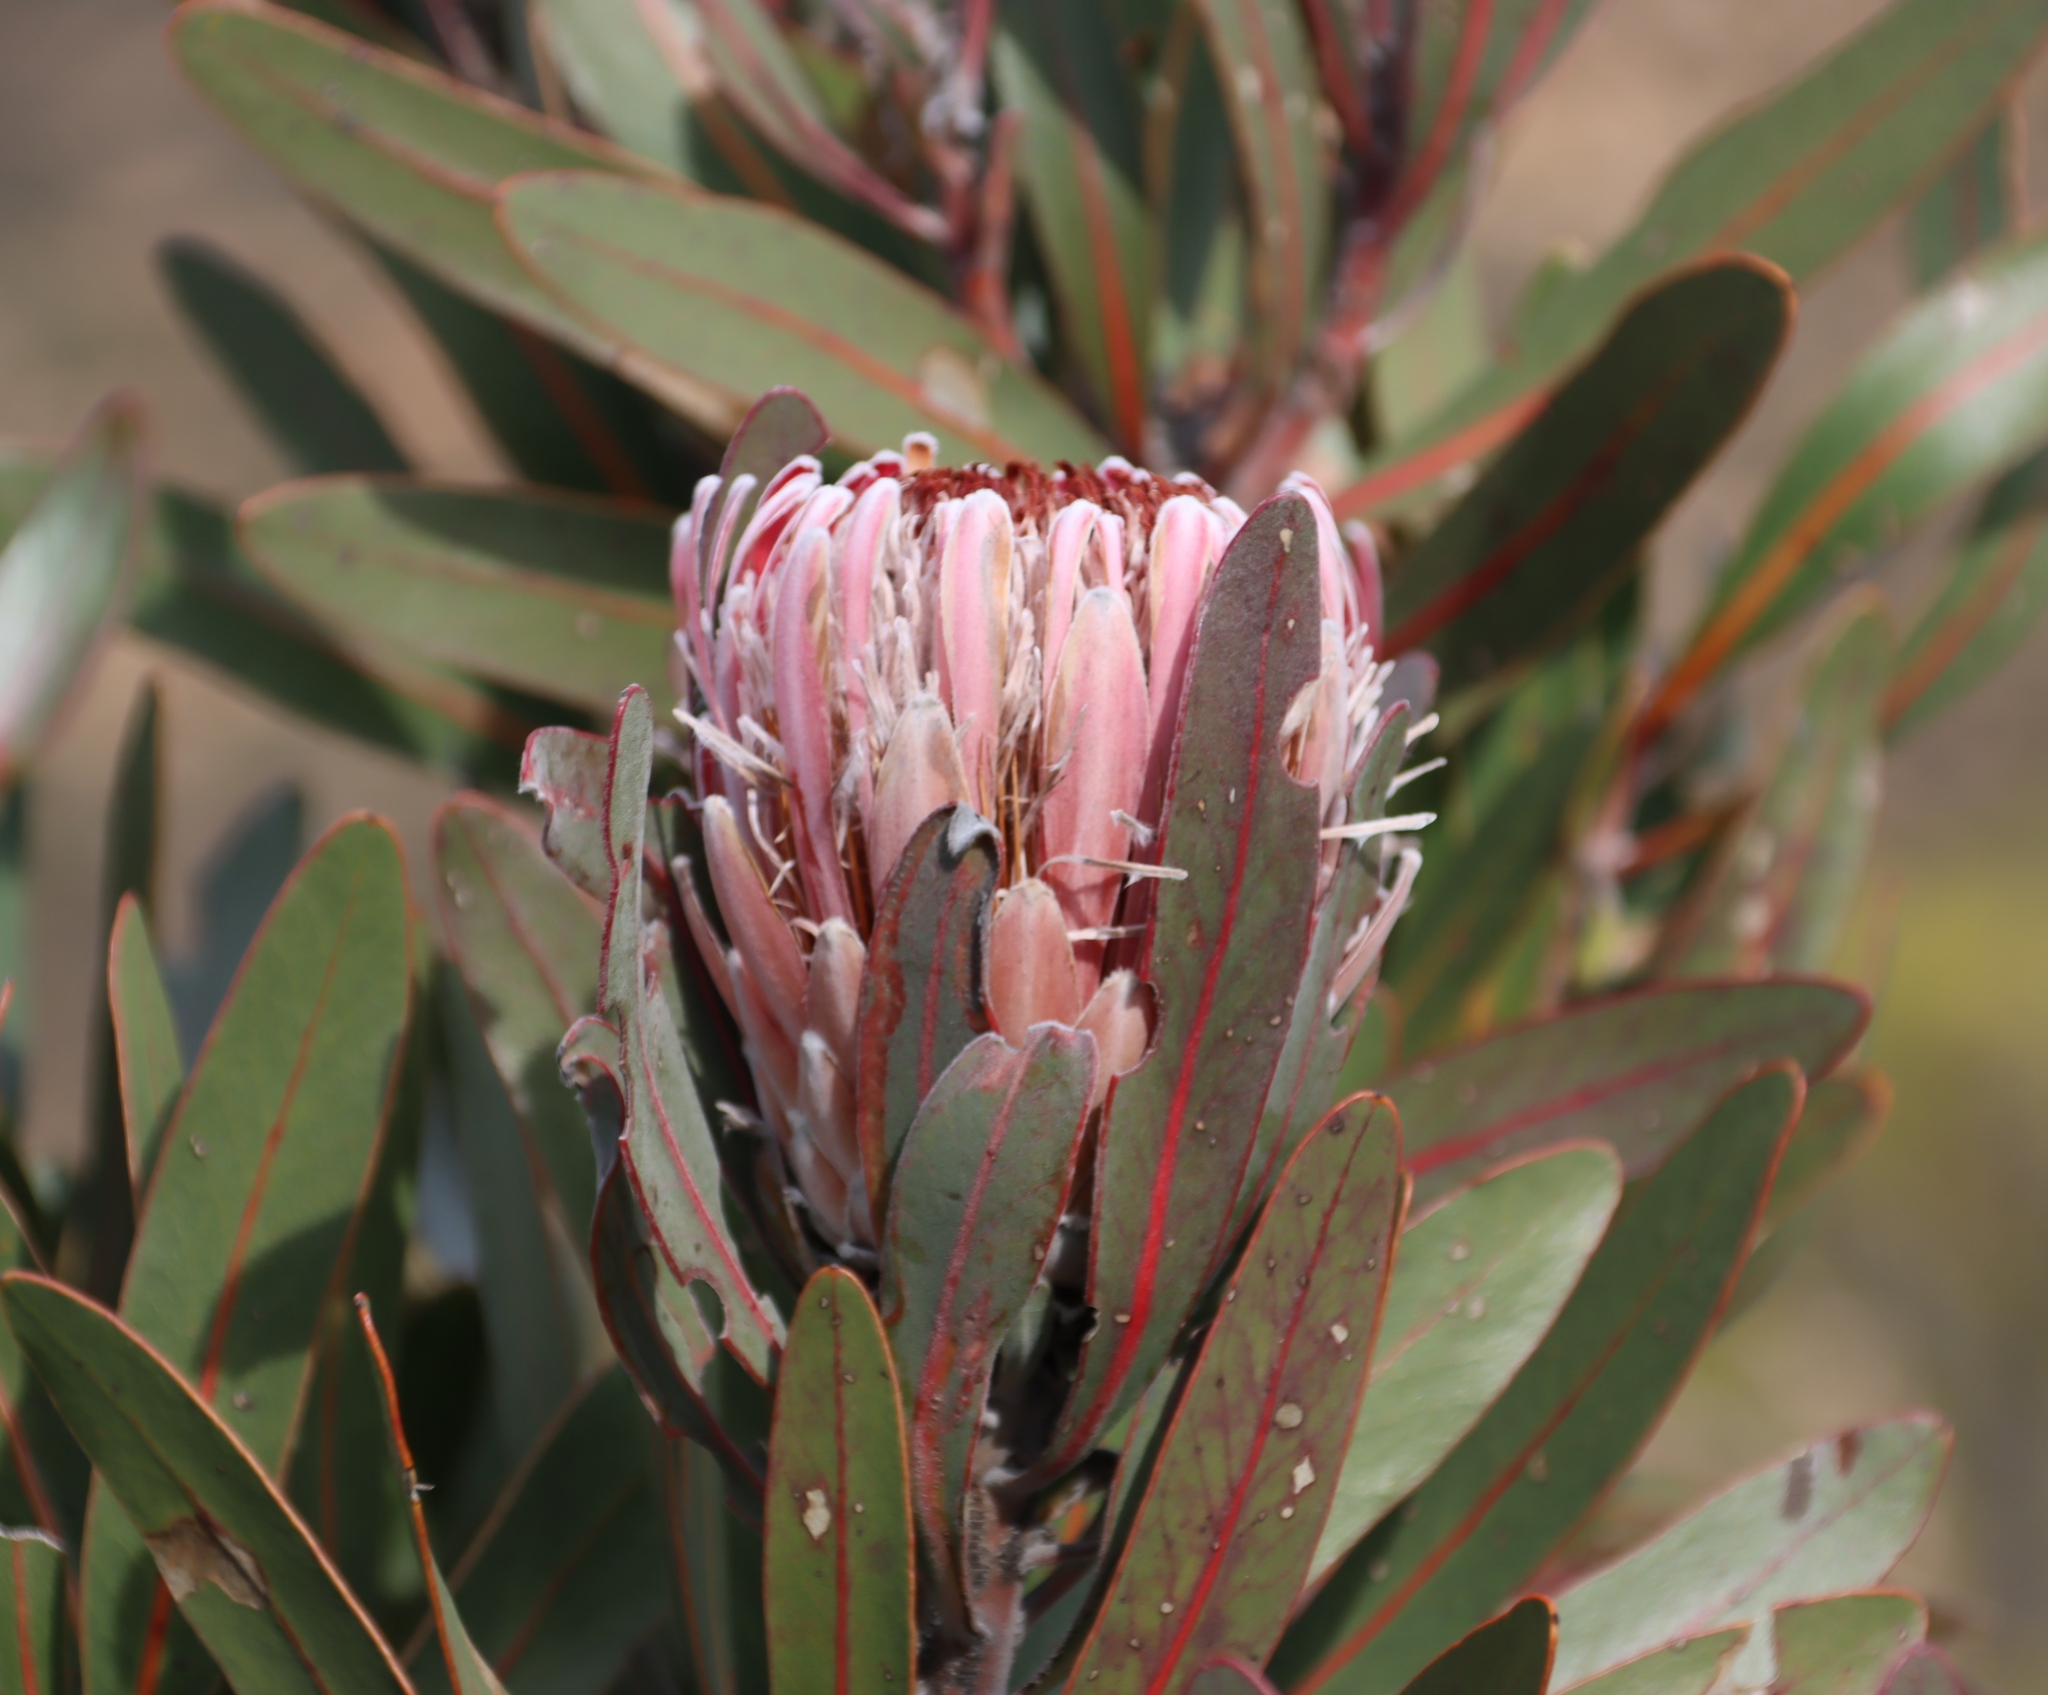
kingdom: Plantae
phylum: Tracheophyta
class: Magnoliopsida
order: Proteales
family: Proteaceae
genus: Protea
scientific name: Protea lorifolia
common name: Strap-leaved protea
